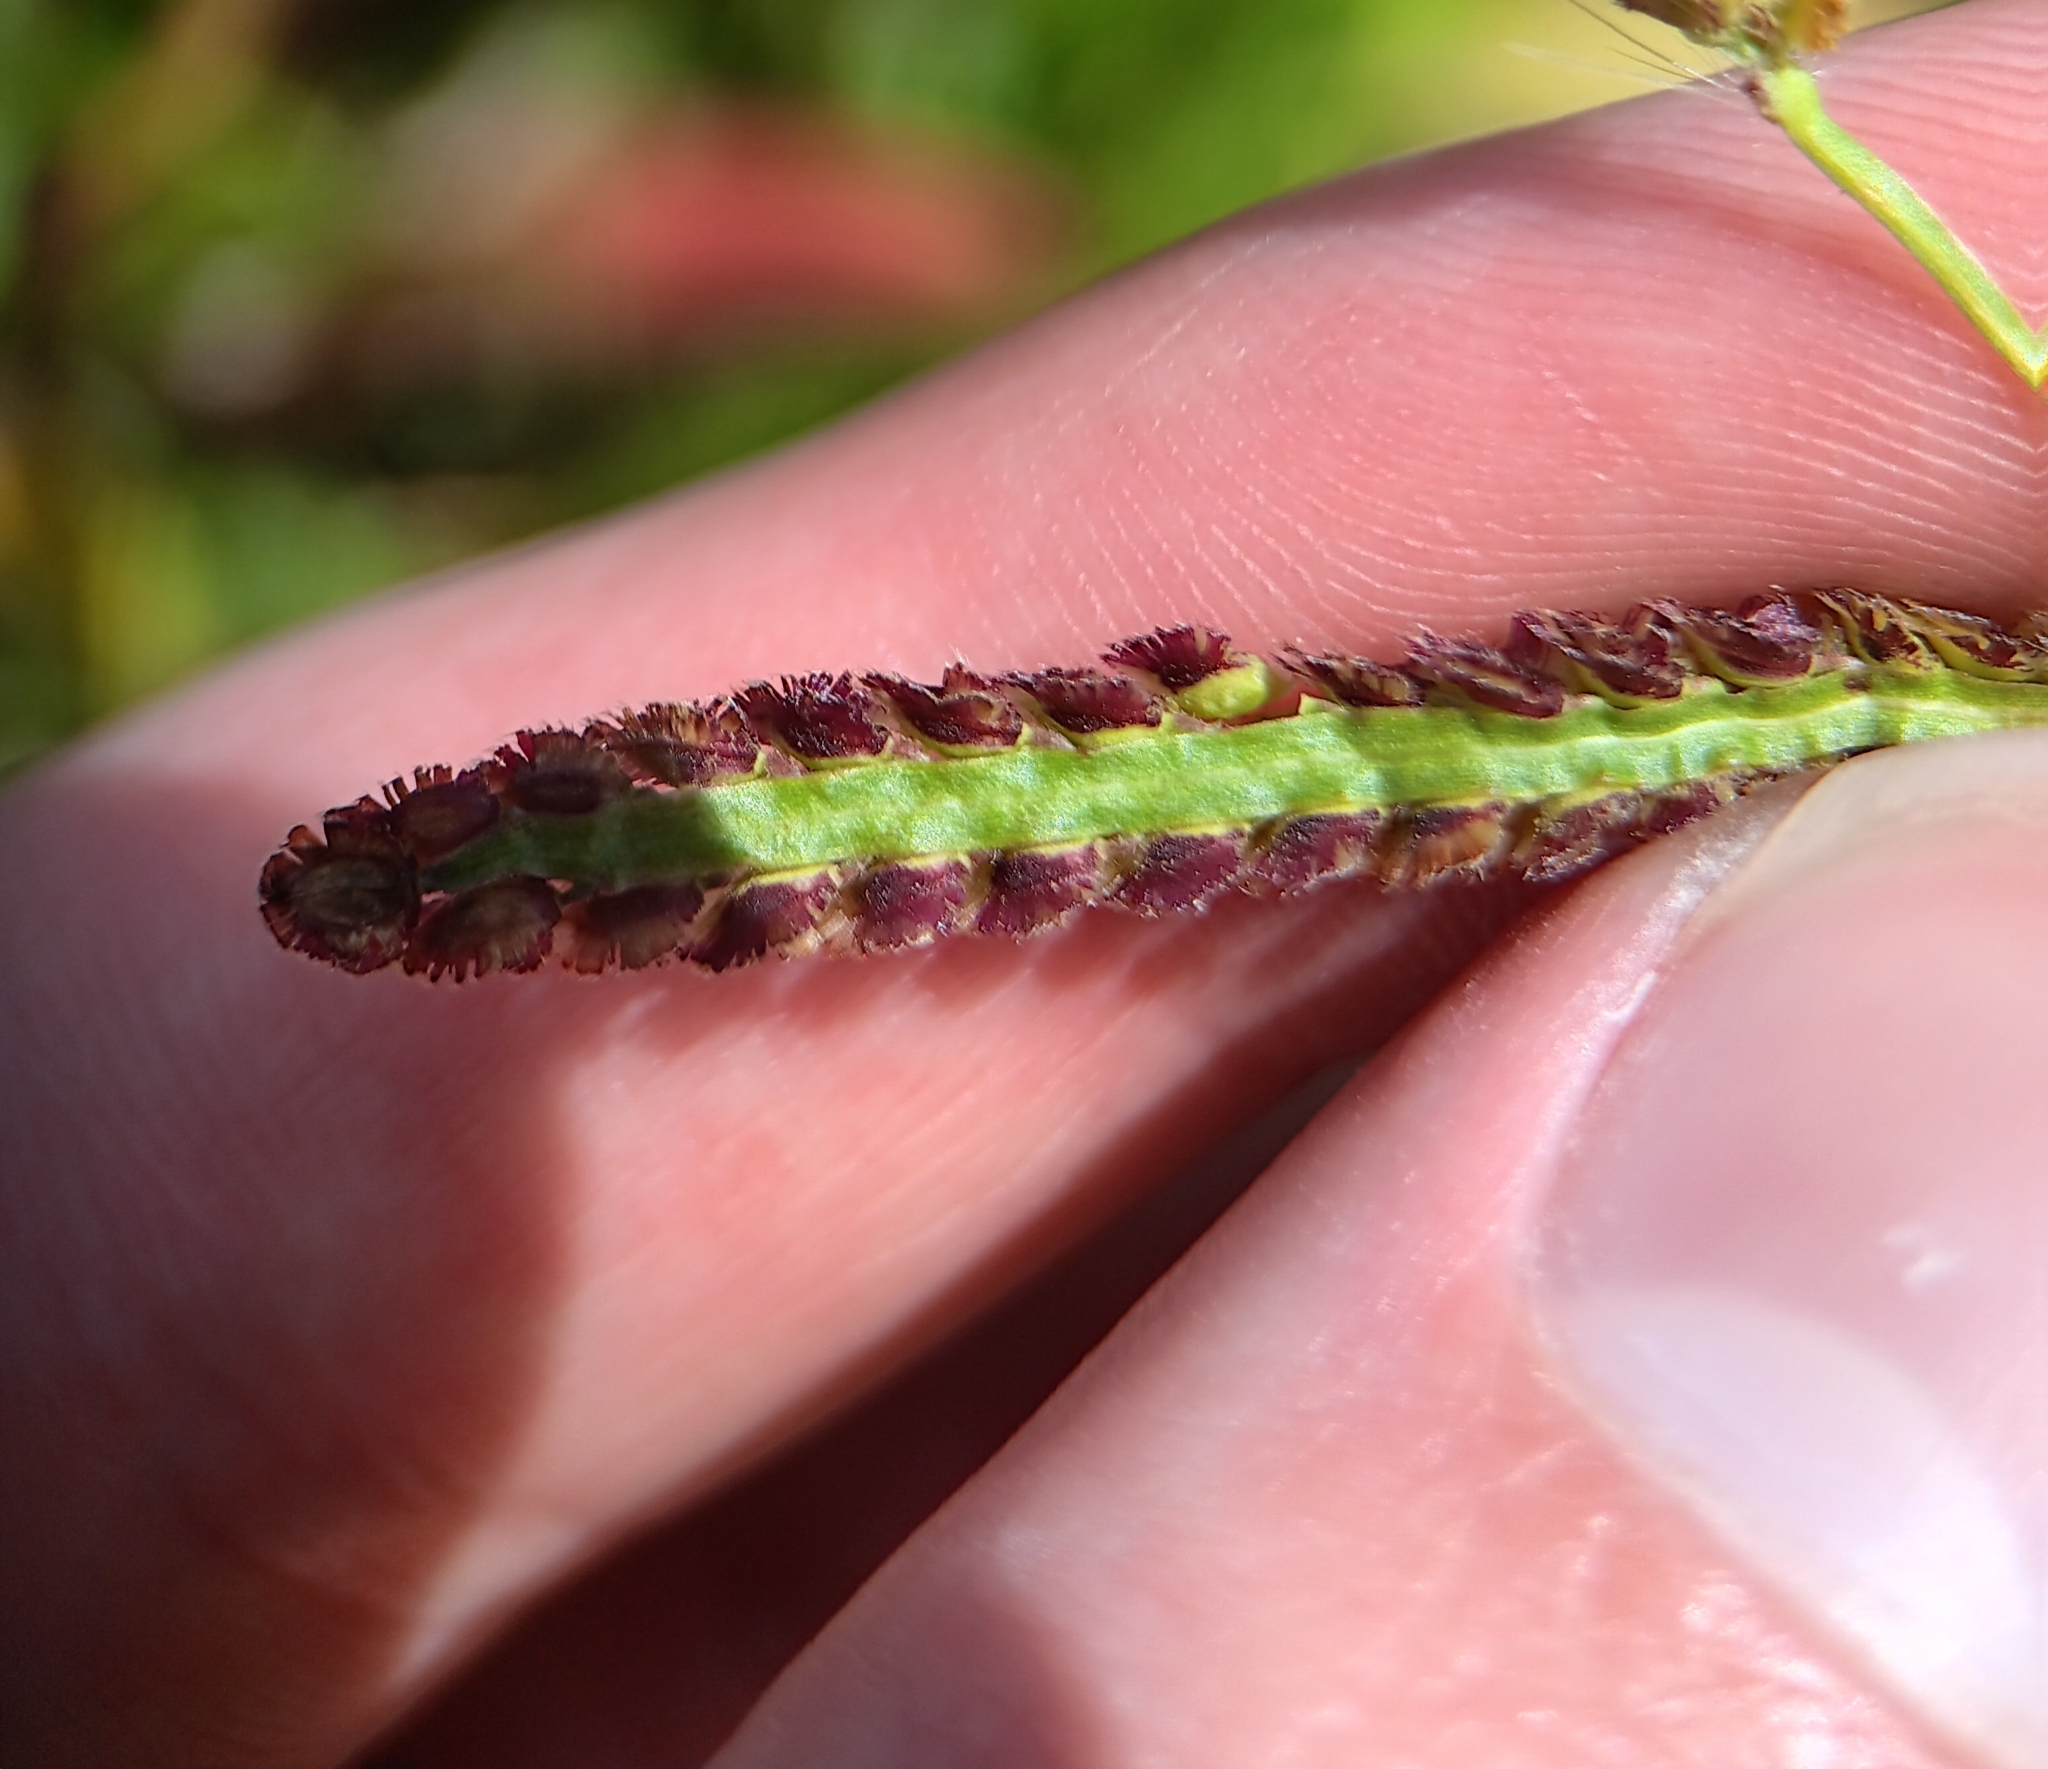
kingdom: Plantae
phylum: Tracheophyta
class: Liliopsida
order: Poales
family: Poaceae
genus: Paspalum
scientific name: Paspalum fimbriatum
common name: Panama crowngrass
